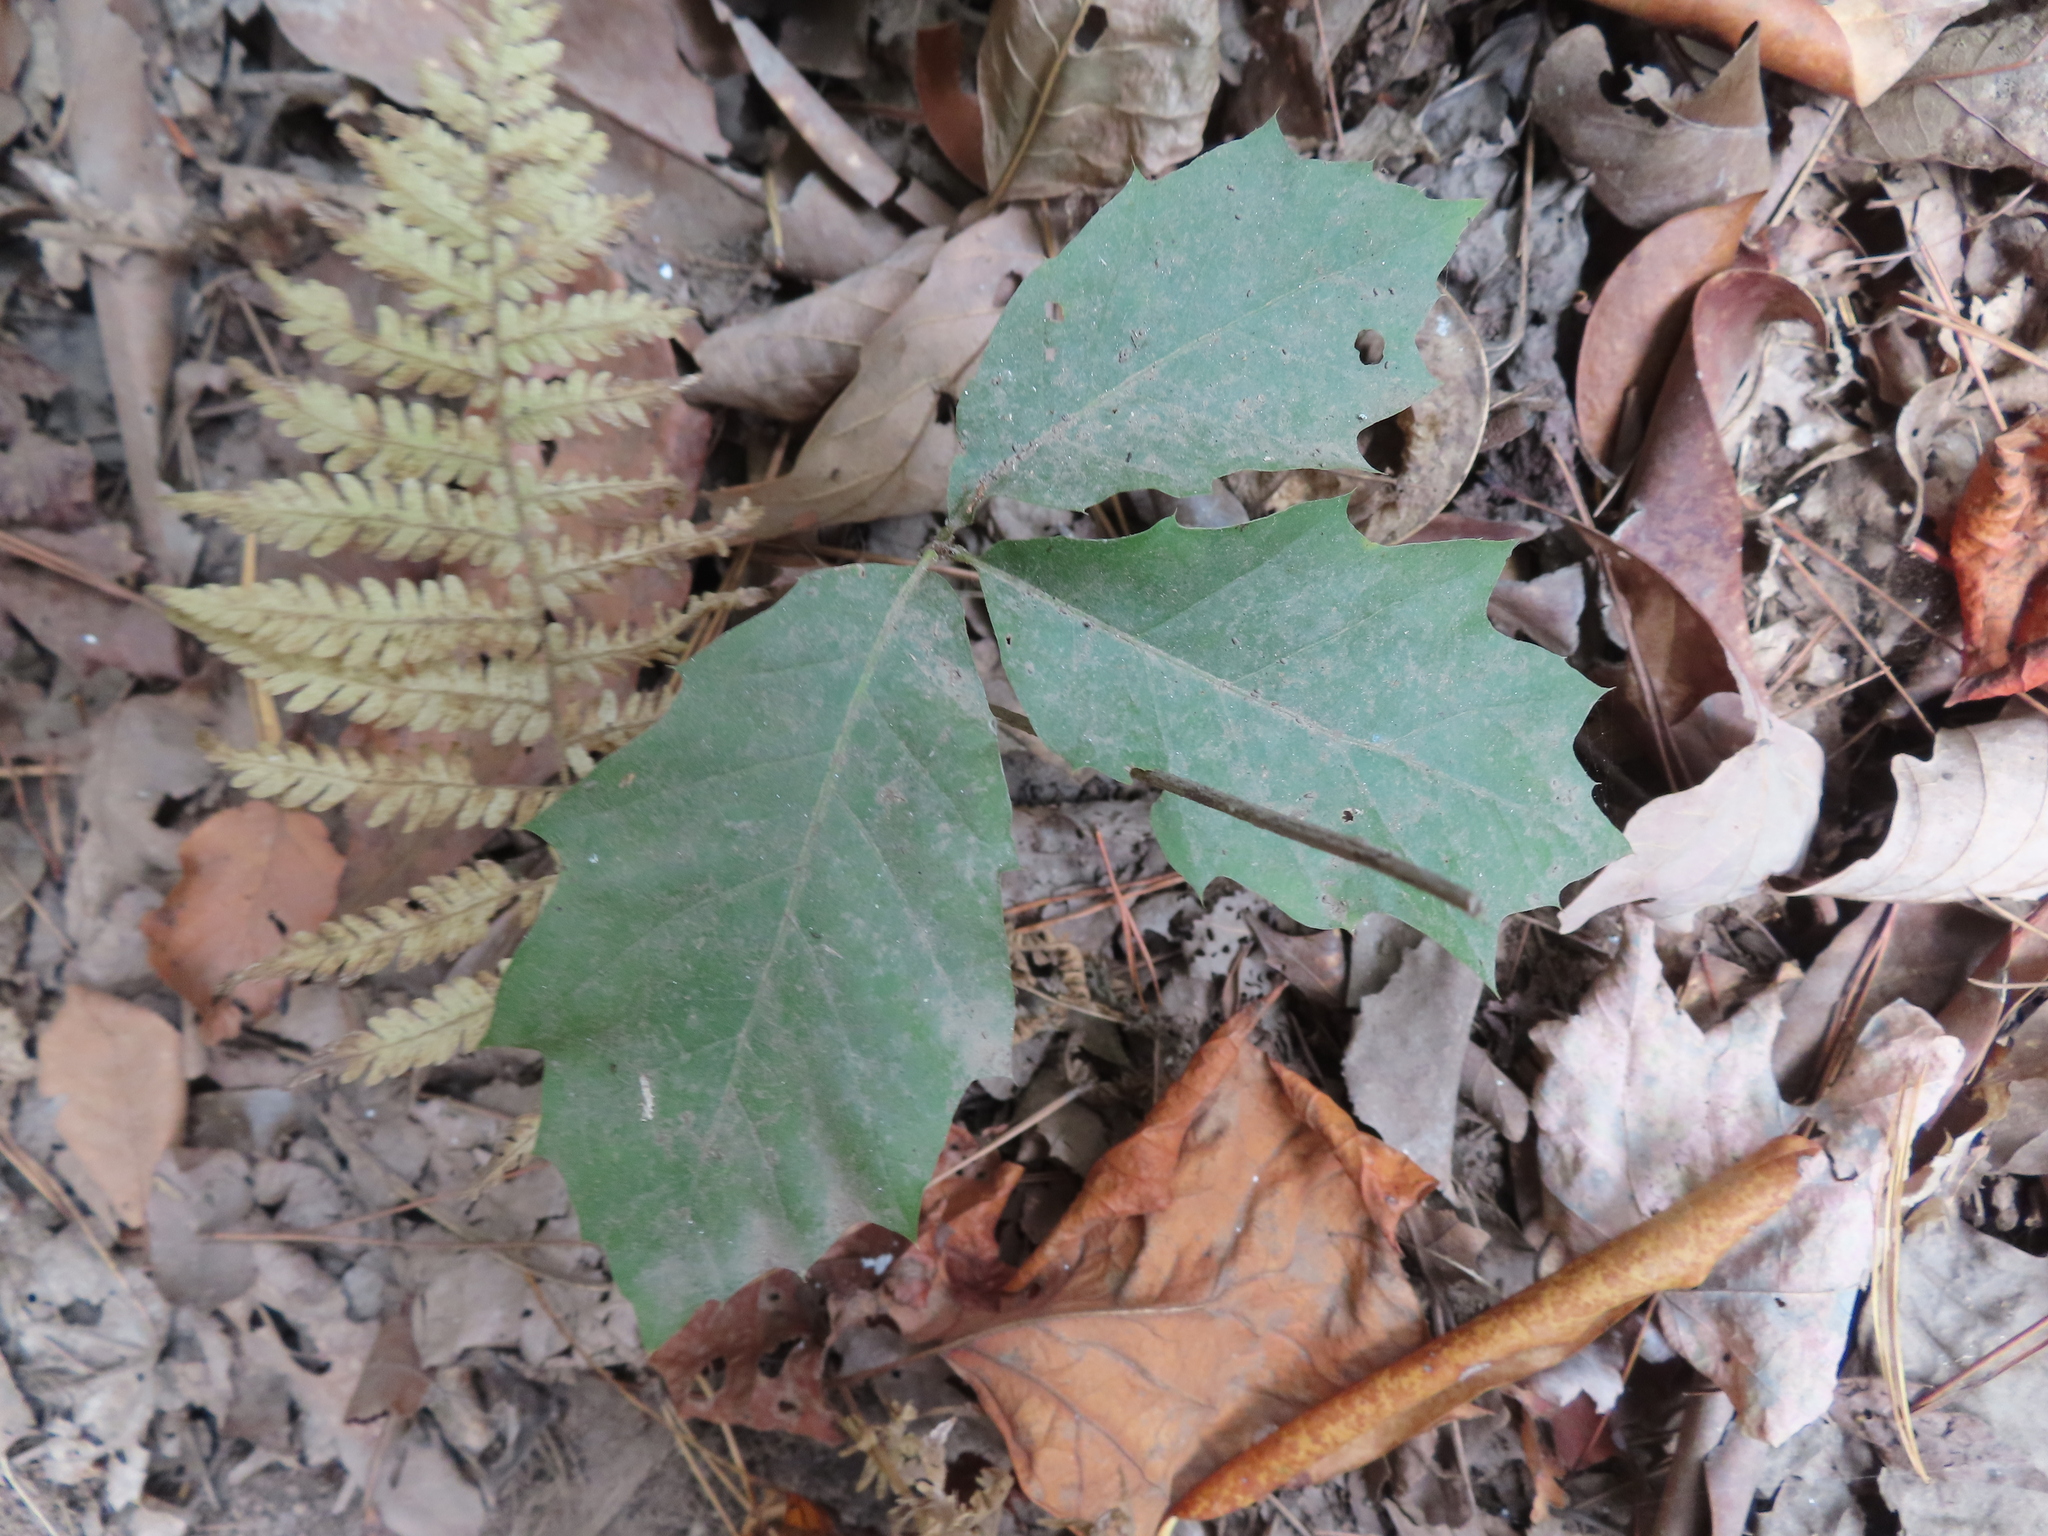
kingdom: Plantae
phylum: Tracheophyta
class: Magnoliopsida
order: Fagales
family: Fagaceae
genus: Quercus
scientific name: Quercus rubra
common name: Red oak
